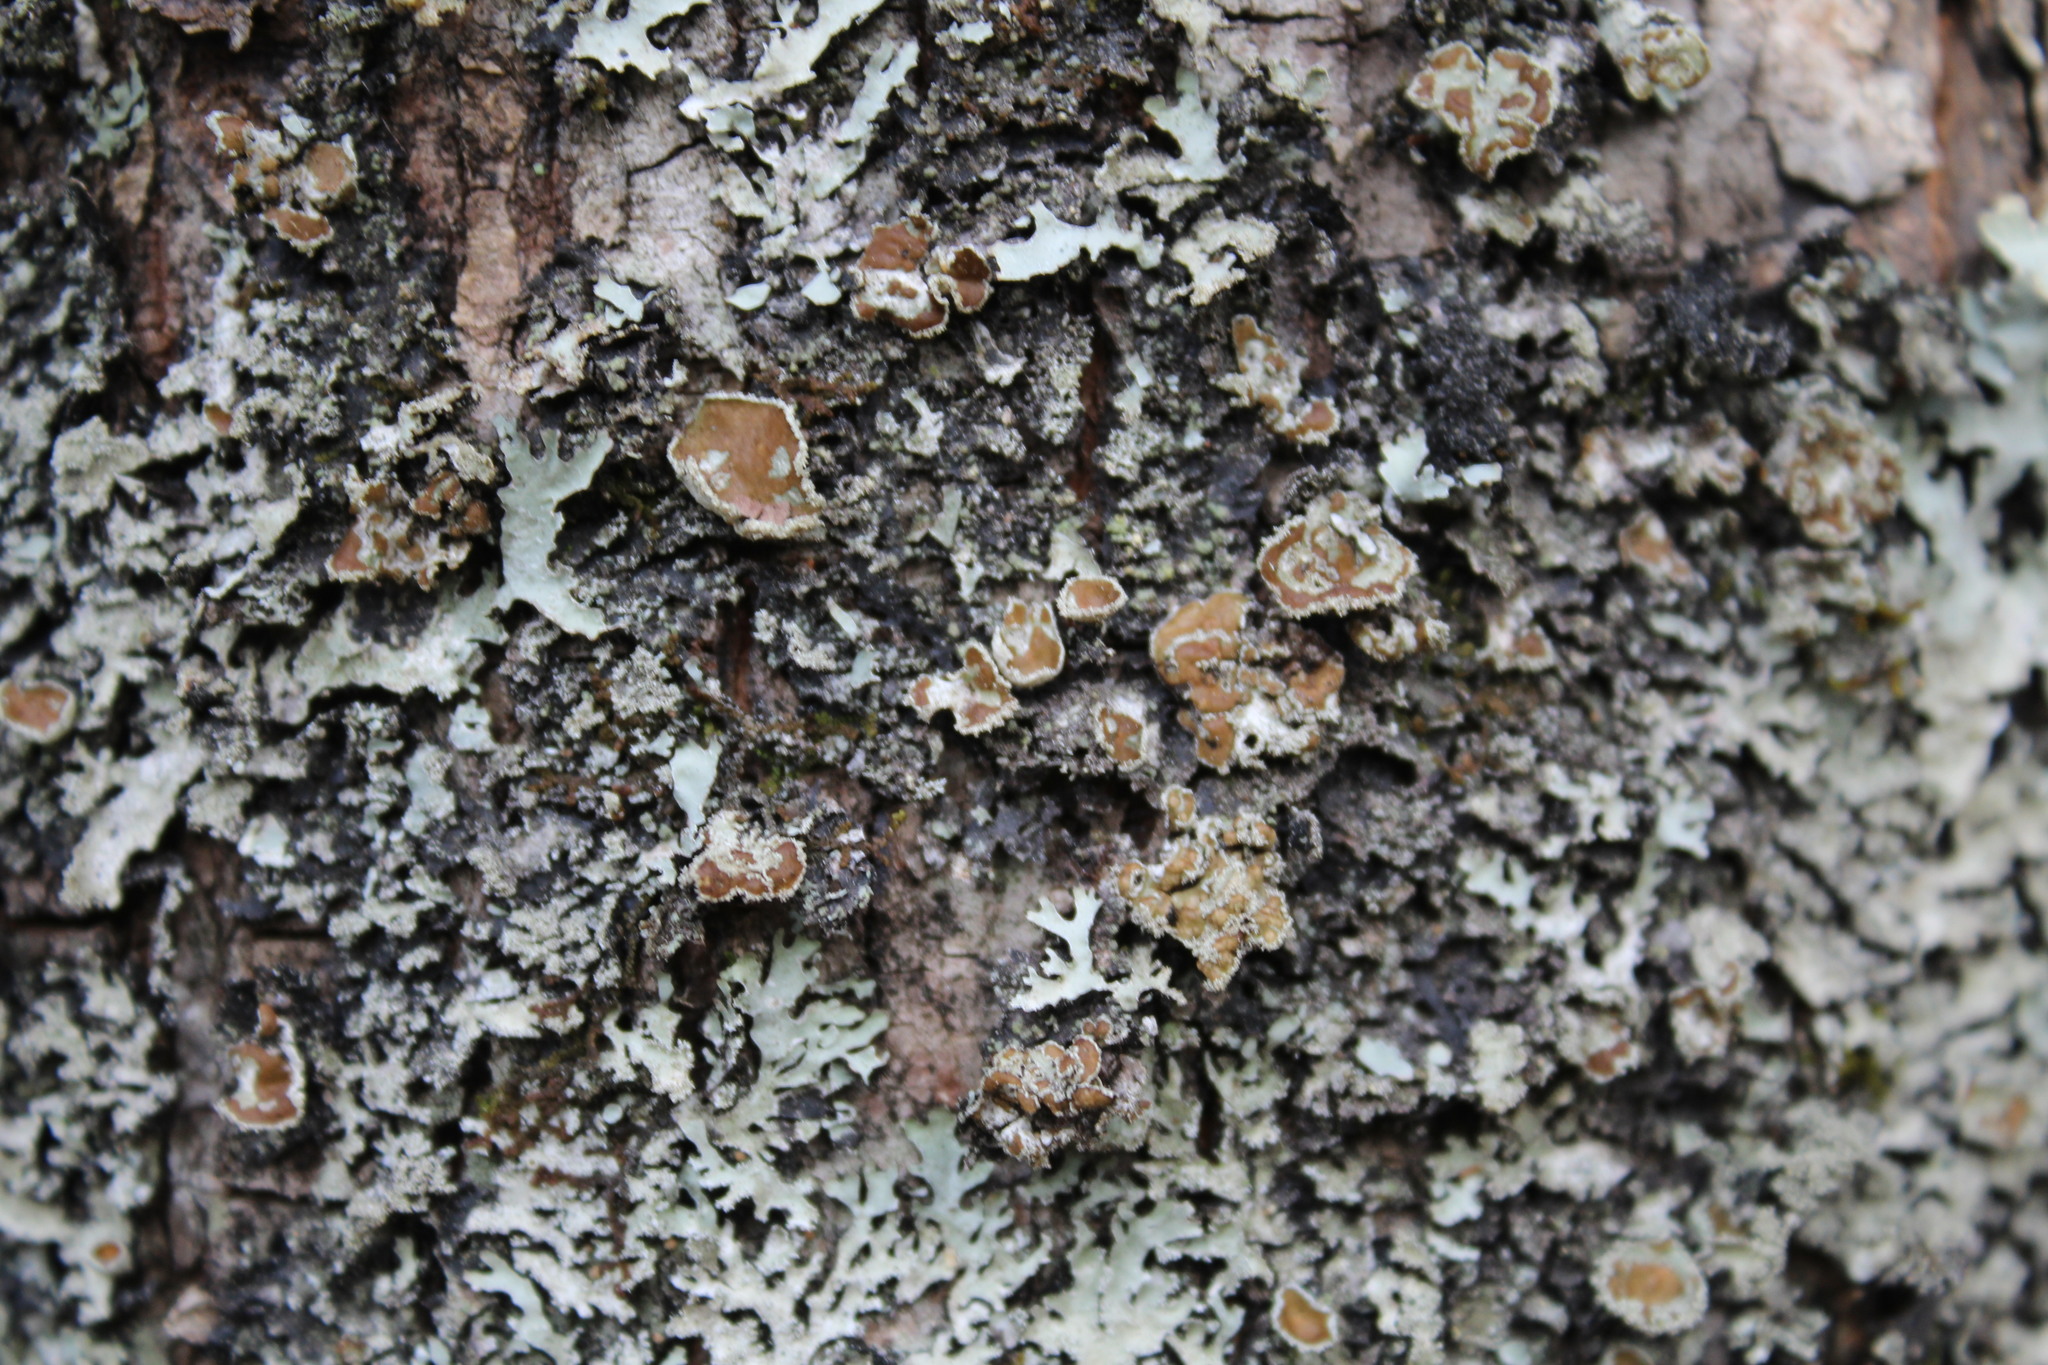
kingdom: Fungi
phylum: Ascomycota
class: Lecanoromycetes
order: Lecanorales
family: Parmeliaceae
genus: Parmelia
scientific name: Parmelia squarrosa
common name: Bottle brush shield lichen
